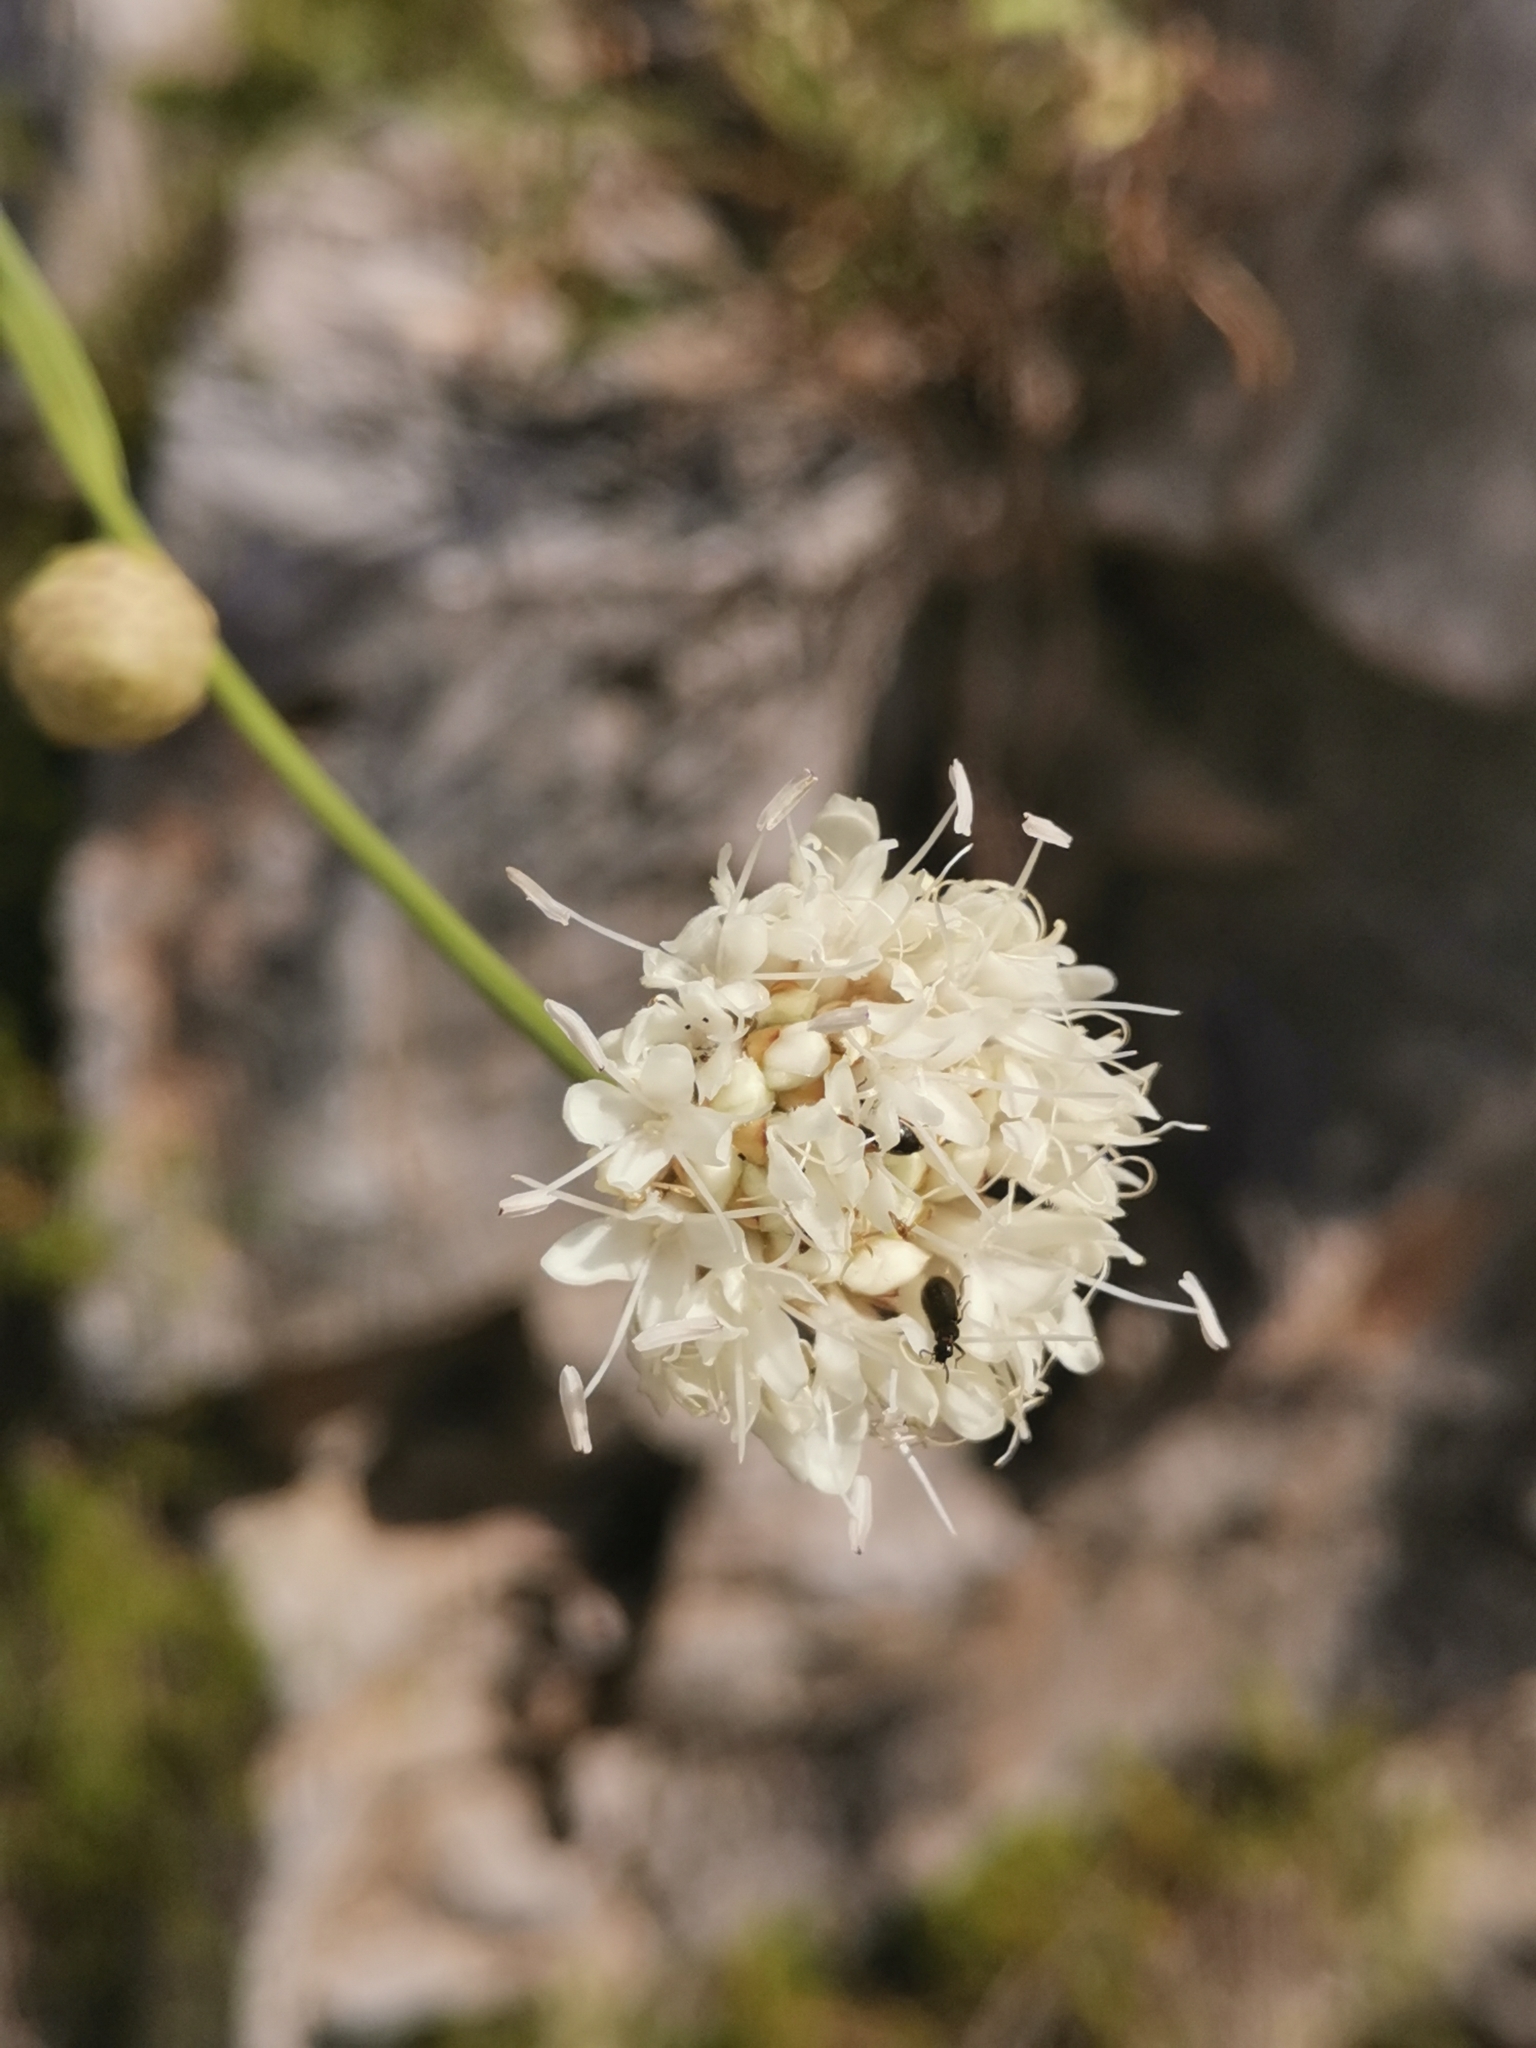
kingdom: Plantae
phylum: Tracheophyta
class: Magnoliopsida
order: Dipsacales
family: Caprifoliaceae
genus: Cephalaria
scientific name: Cephalaria leucantha
